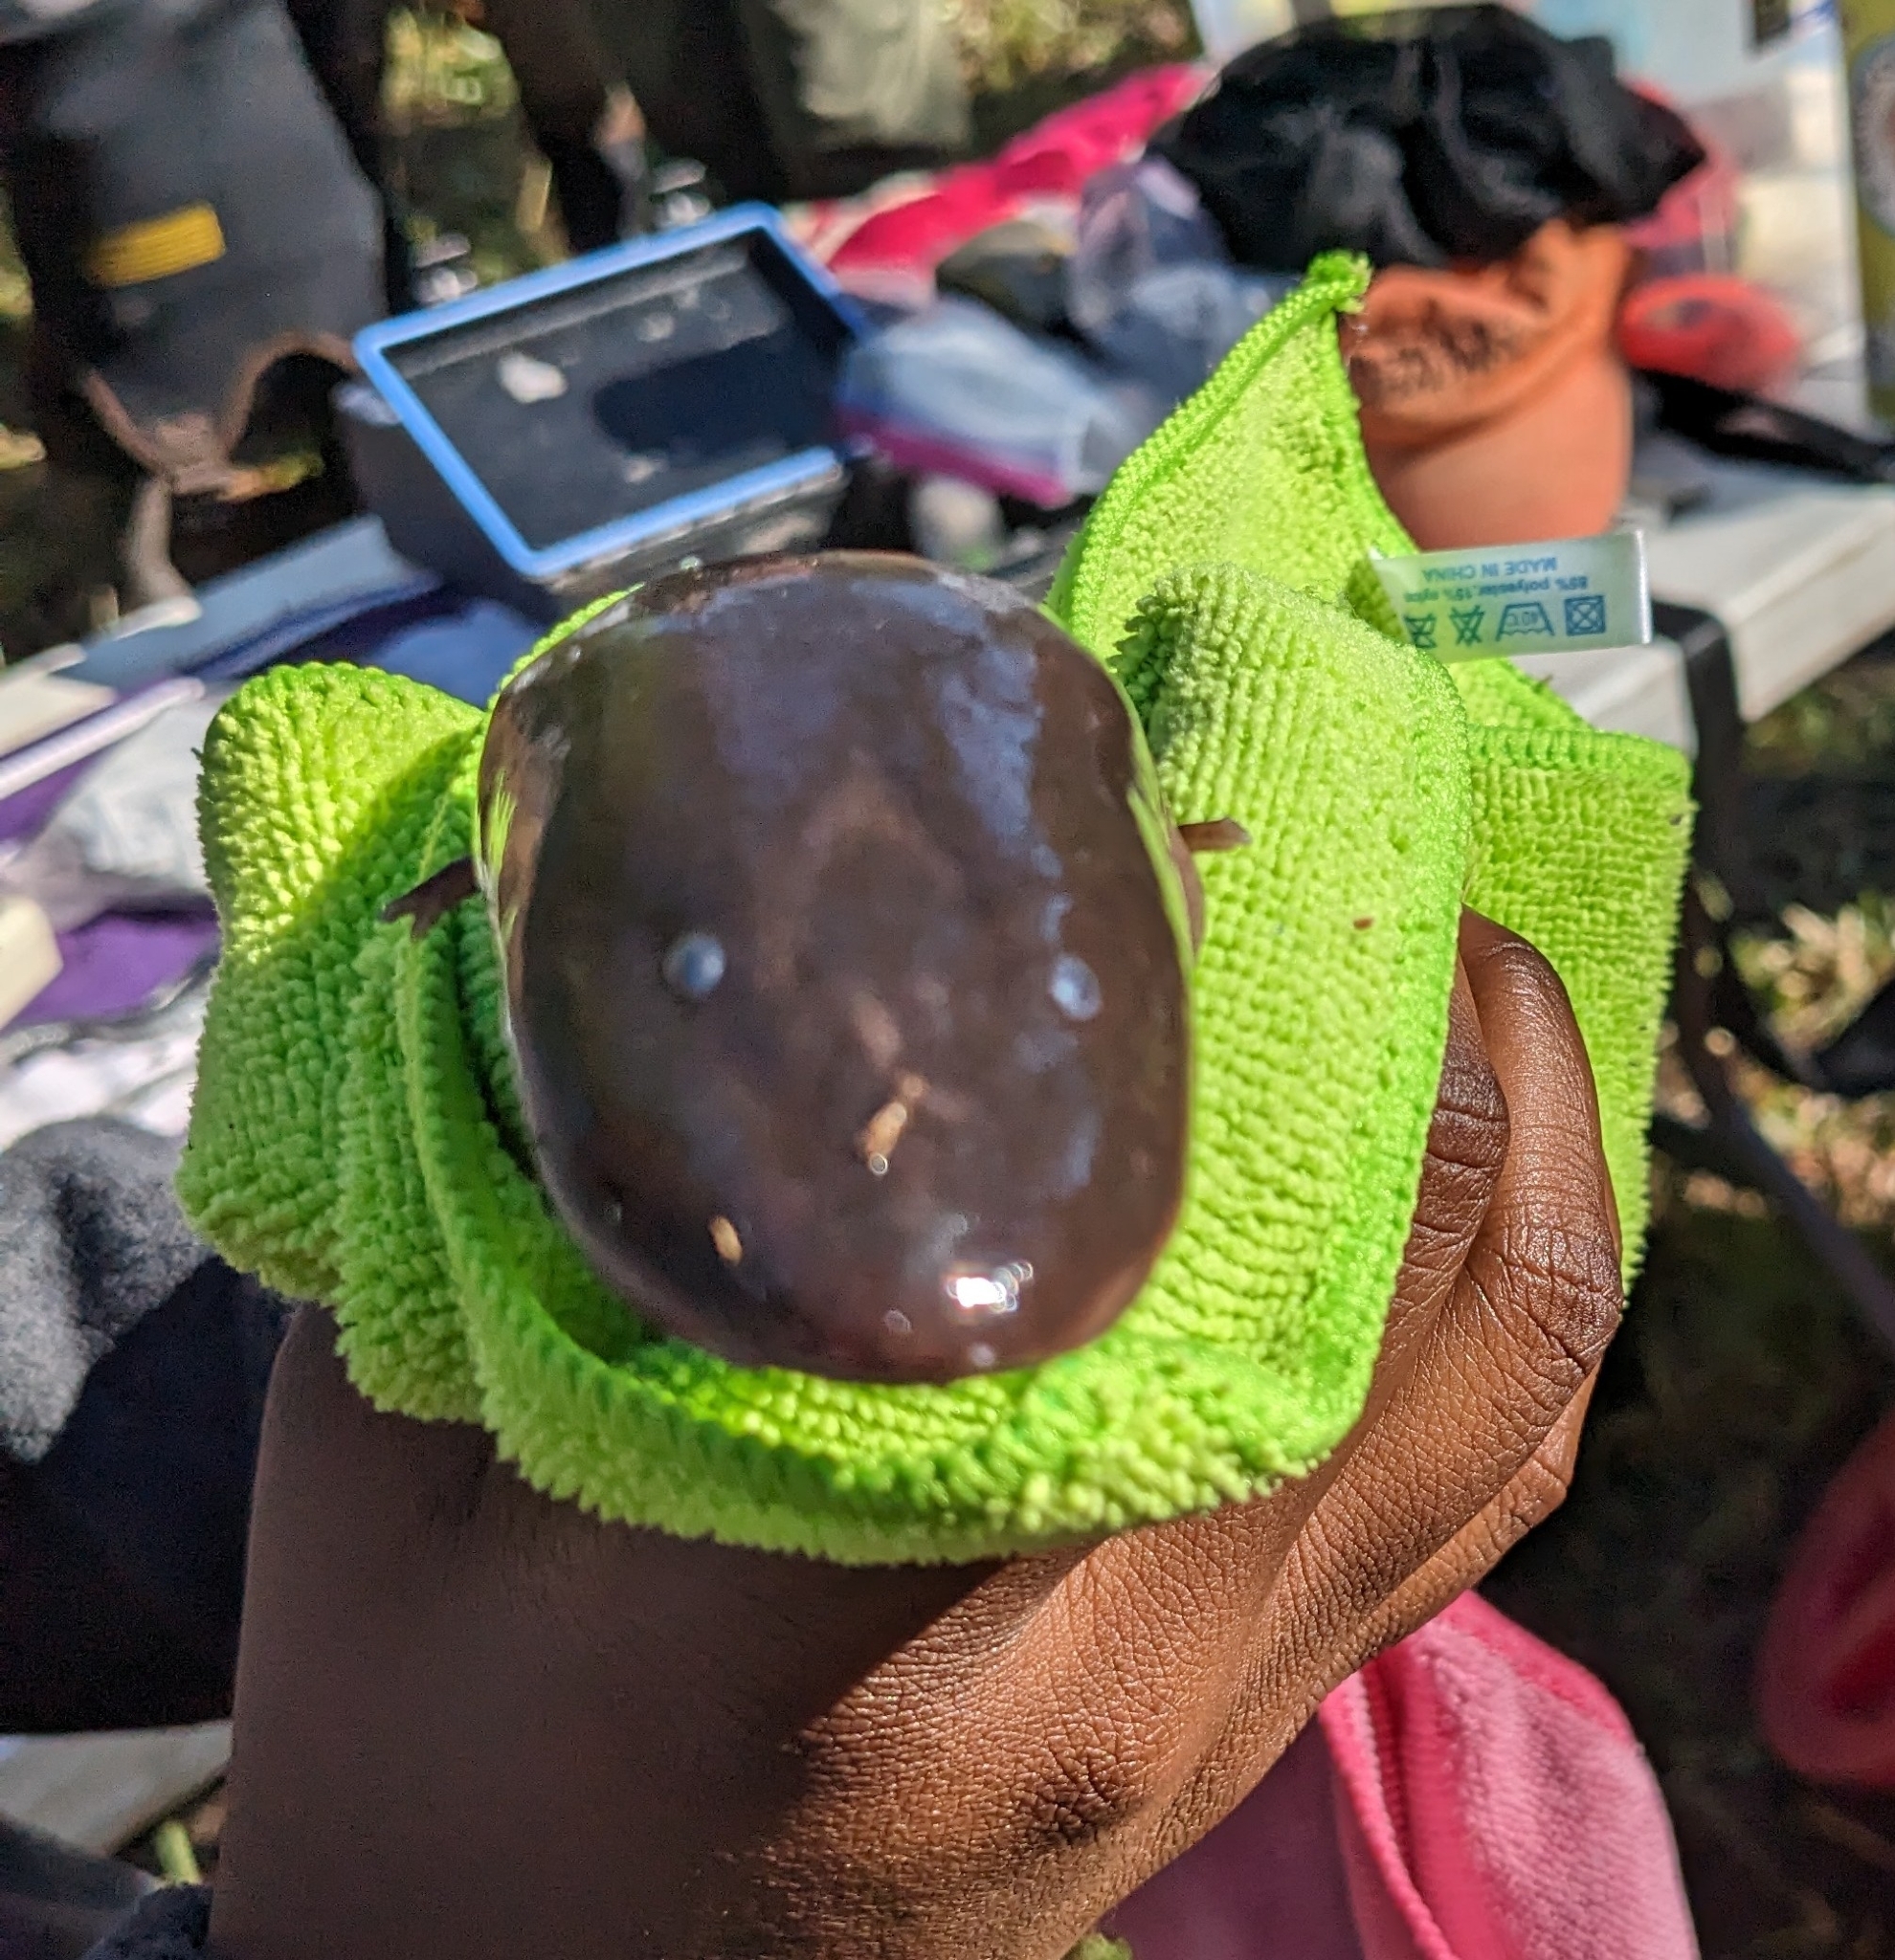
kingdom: Animalia
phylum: Chordata
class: Amphibia
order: Caudata
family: Amphiumidae
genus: Amphiuma
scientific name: Amphiuma means
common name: Two-toed amphiuma
